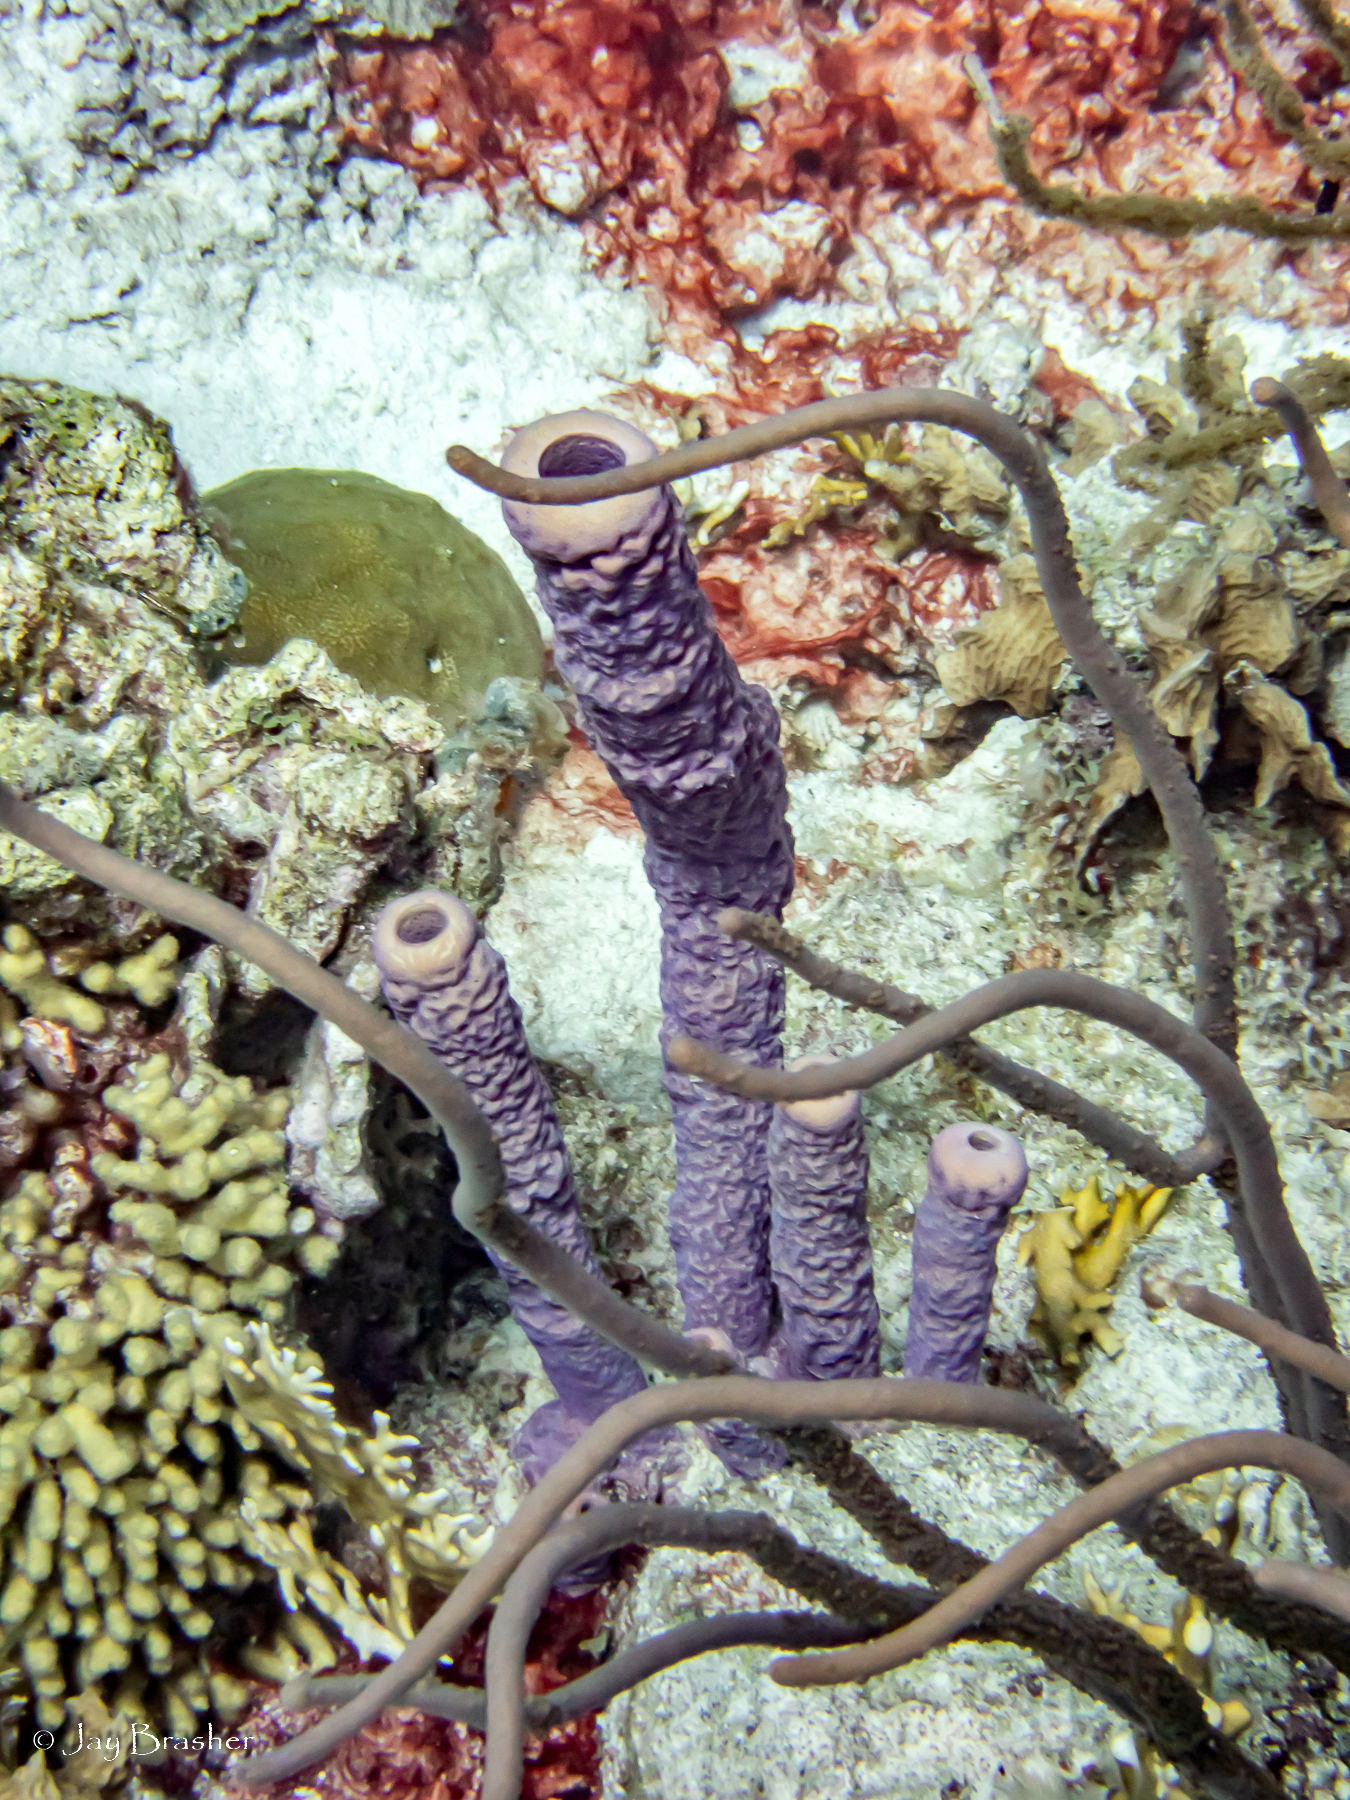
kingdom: Animalia
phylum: Porifera
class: Demospongiae
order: Verongiida
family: Aplysinidae
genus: Aplysina
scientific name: Aplysina archeri
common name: Stove-pipe sponge
